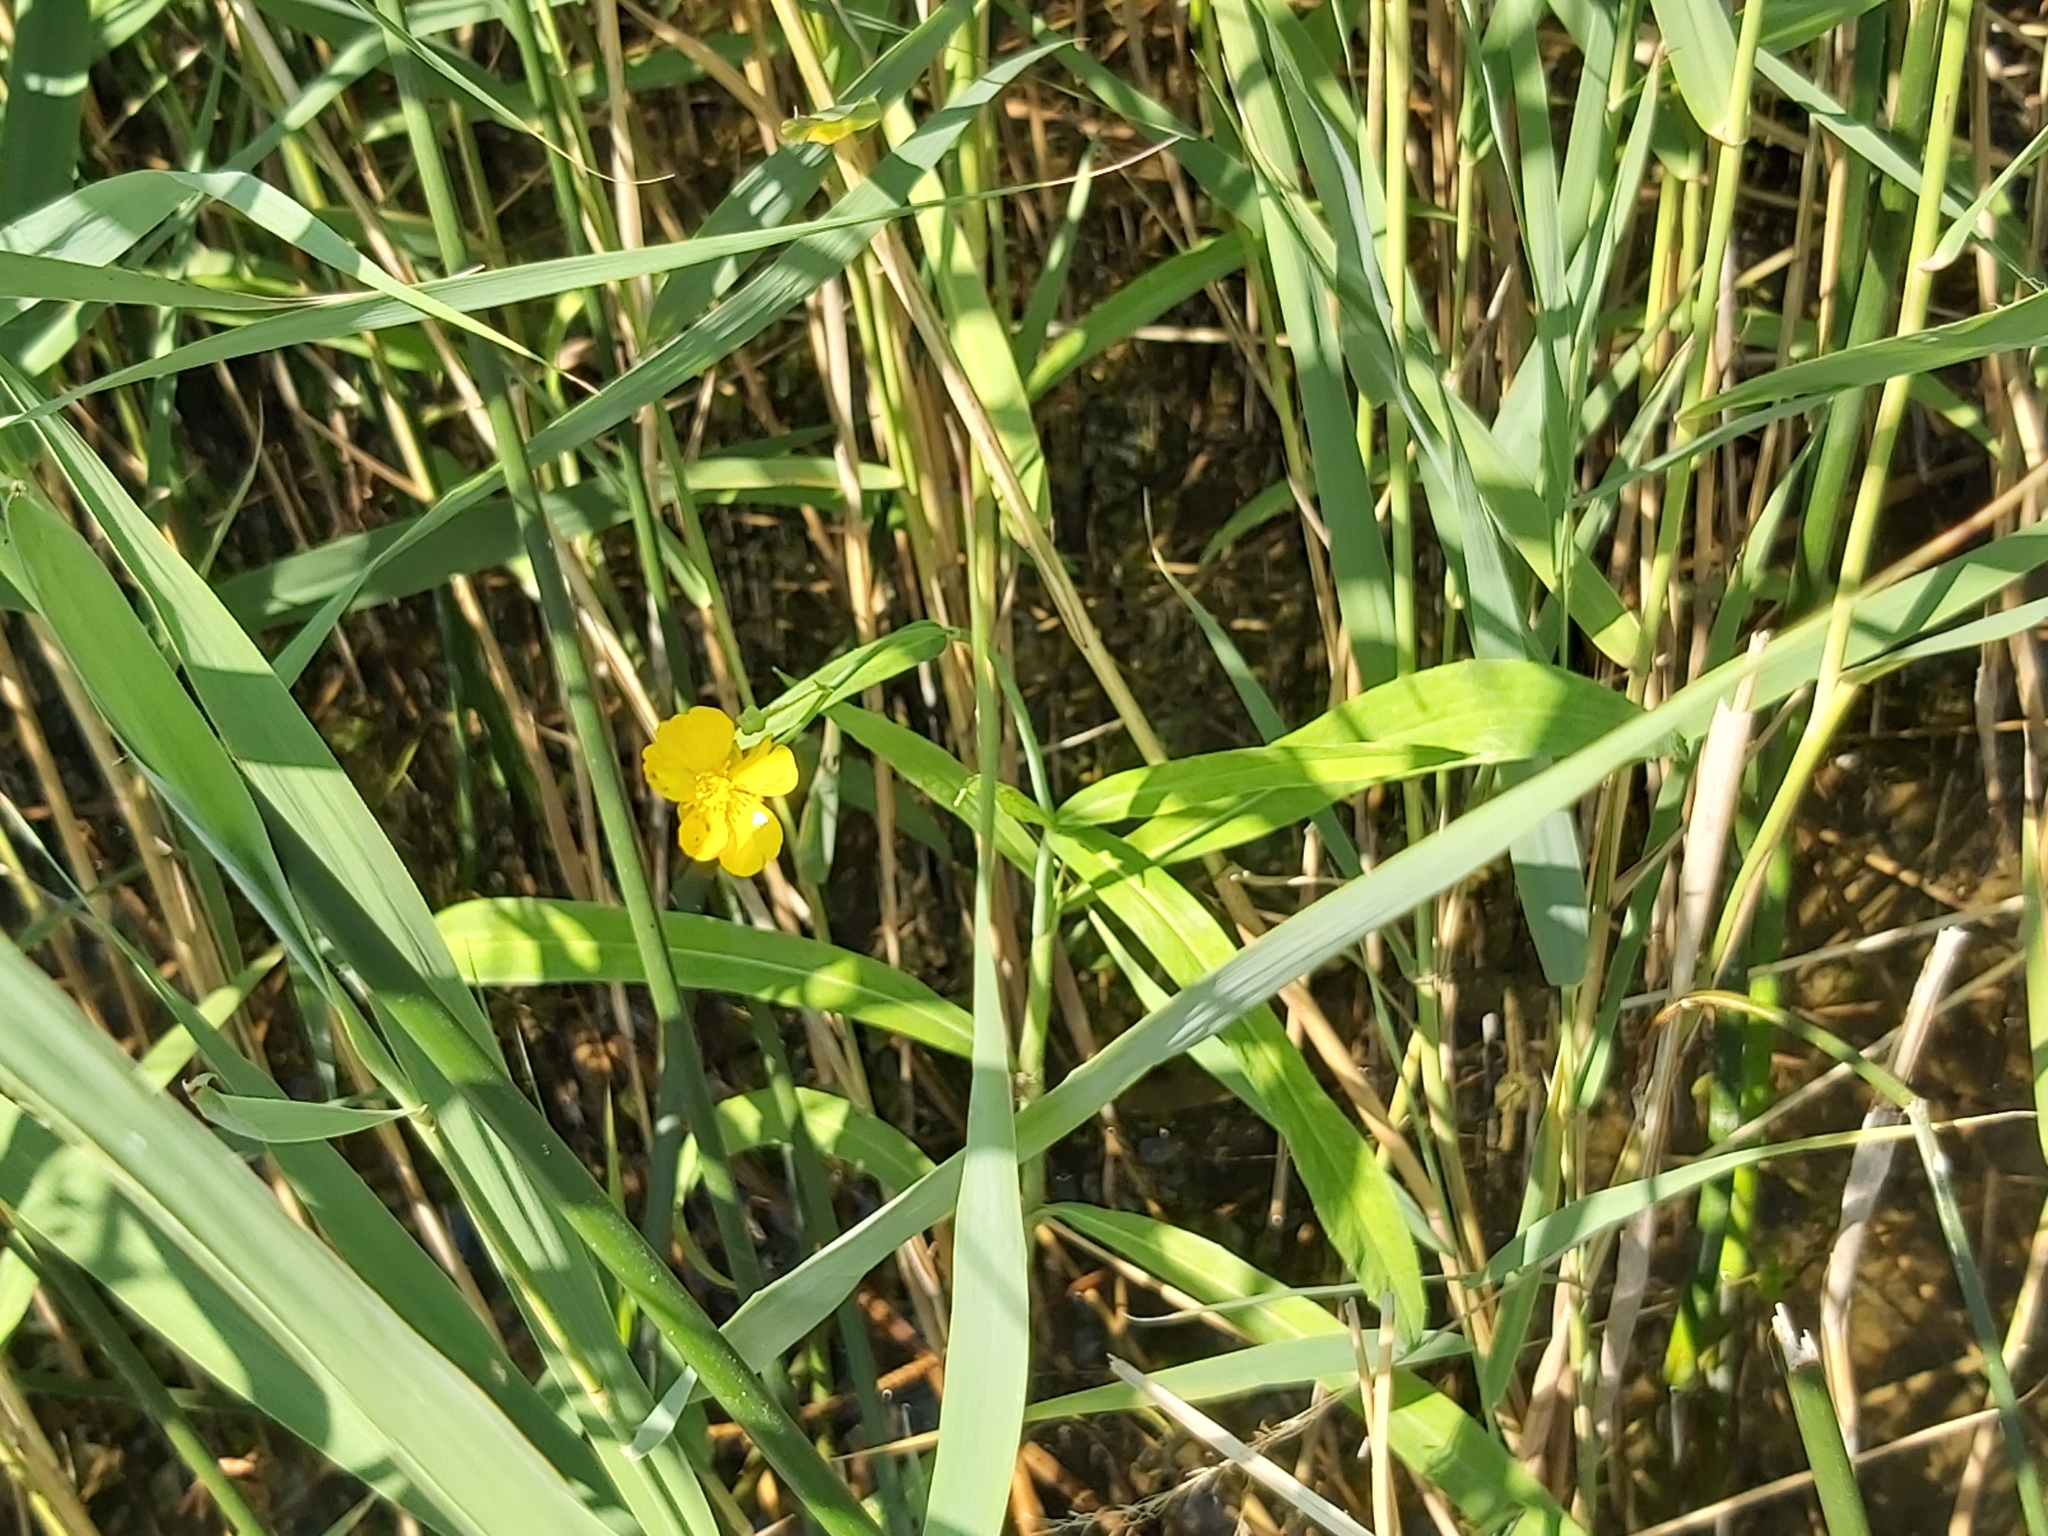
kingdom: Plantae
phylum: Tracheophyta
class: Magnoliopsida
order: Ranunculales
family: Ranunculaceae
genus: Ranunculus
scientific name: Ranunculus lingua
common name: Greater spearwort
